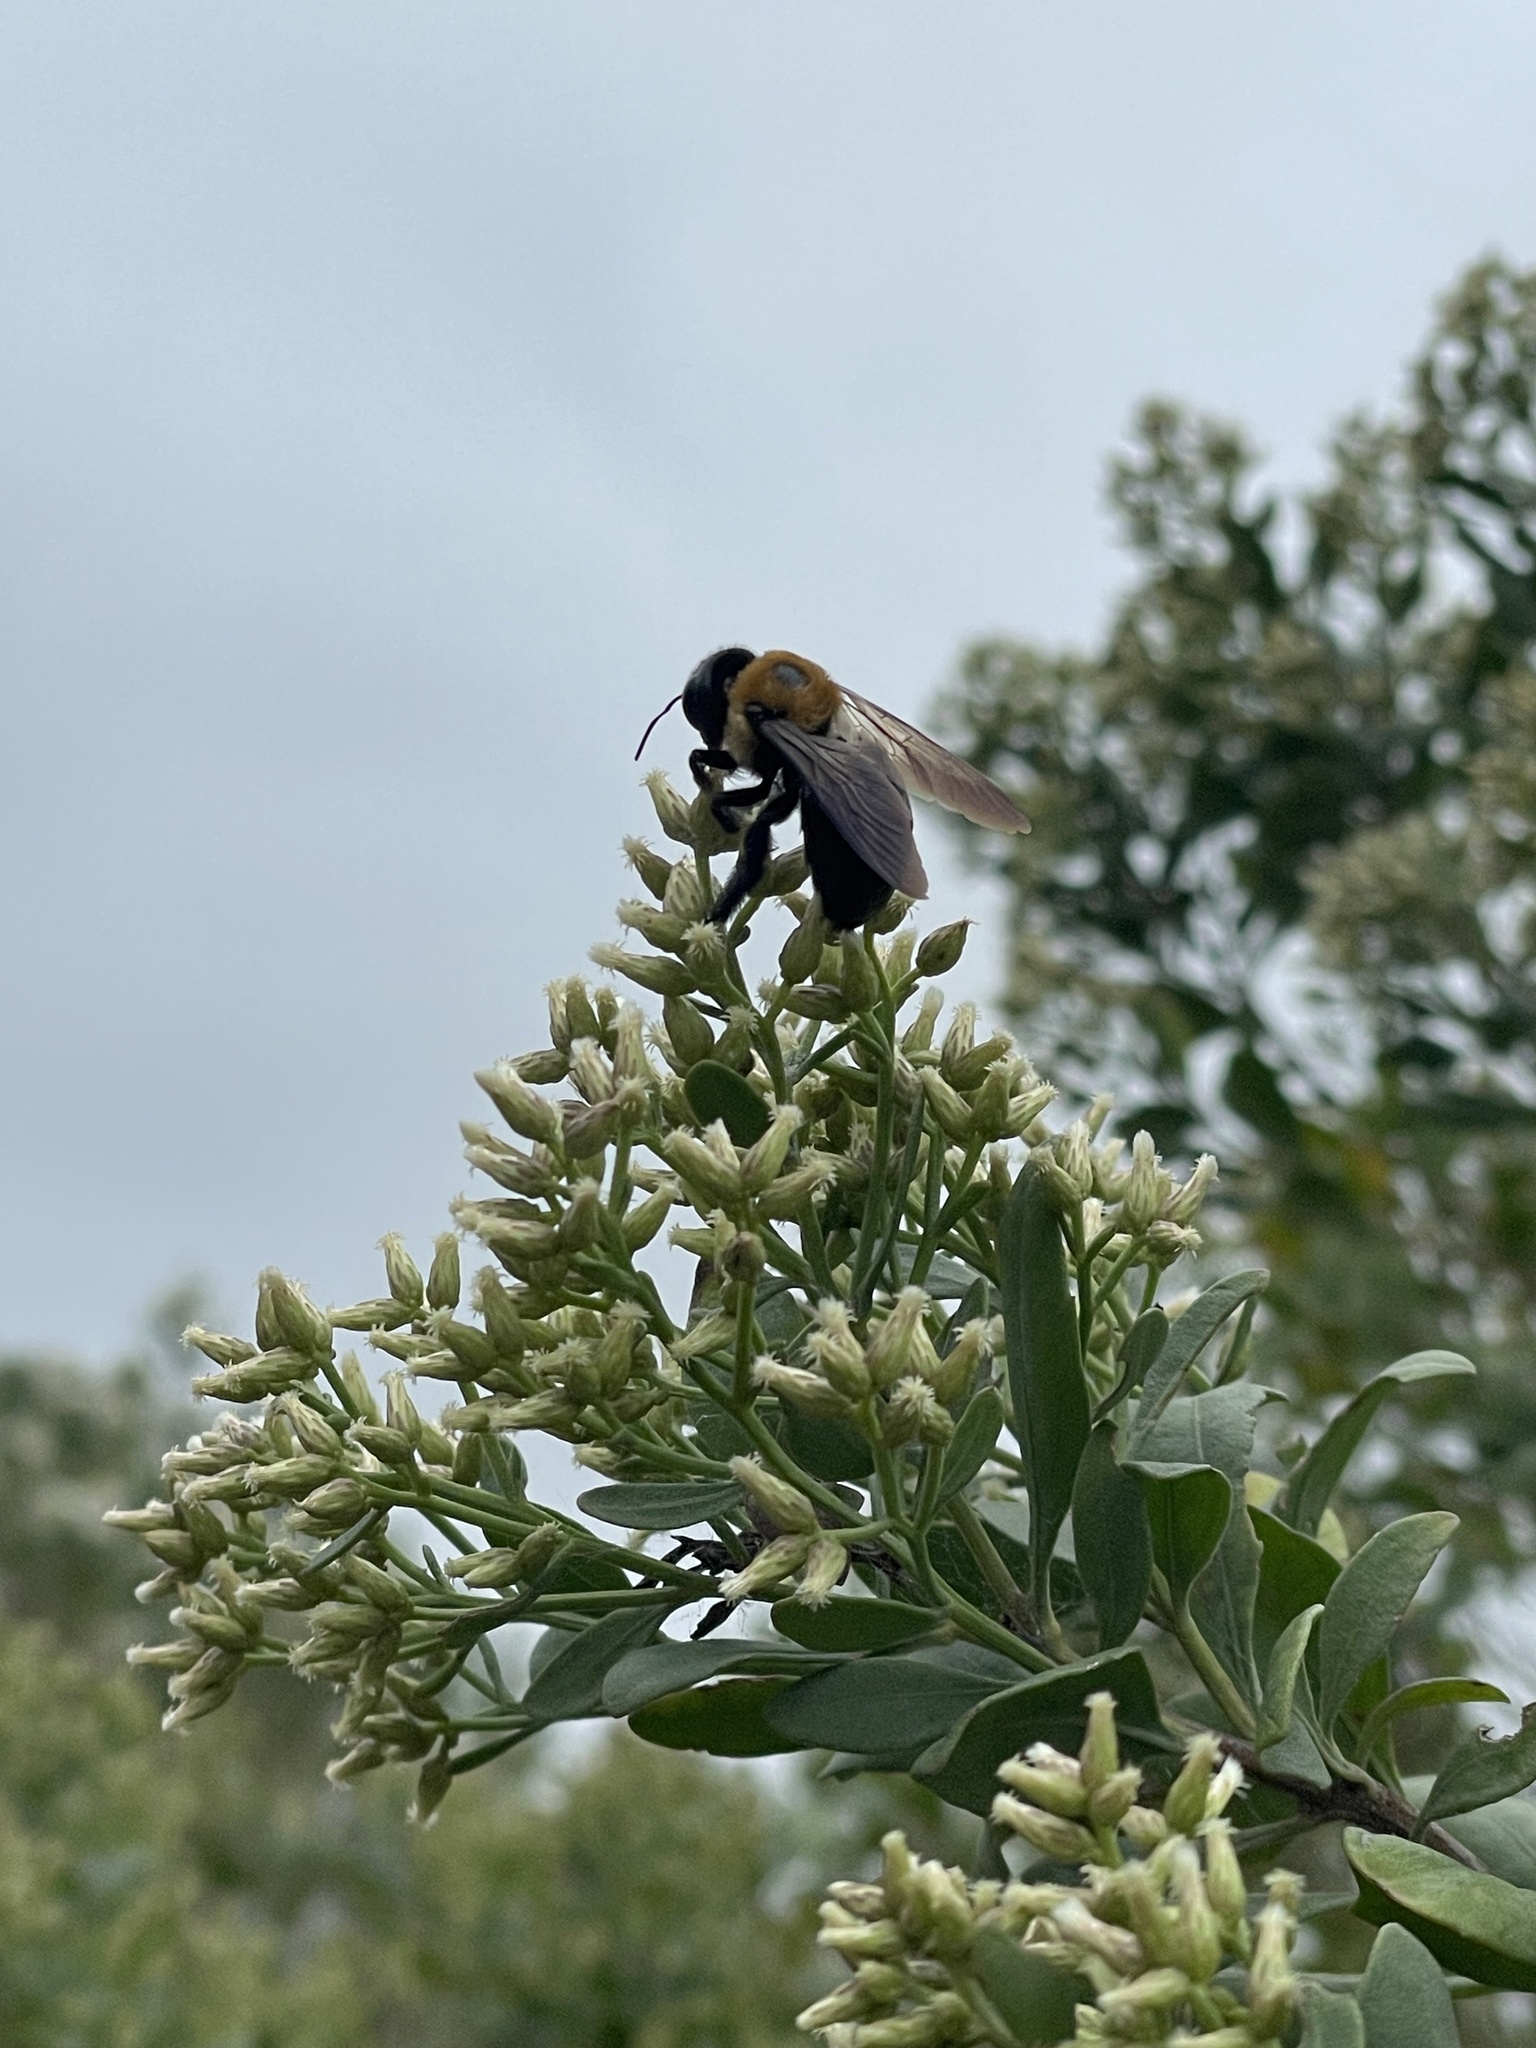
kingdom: Animalia
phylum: Arthropoda
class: Insecta
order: Hymenoptera
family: Apidae
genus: Xylocopa
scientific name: Xylocopa virginica
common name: Carpenter bee
